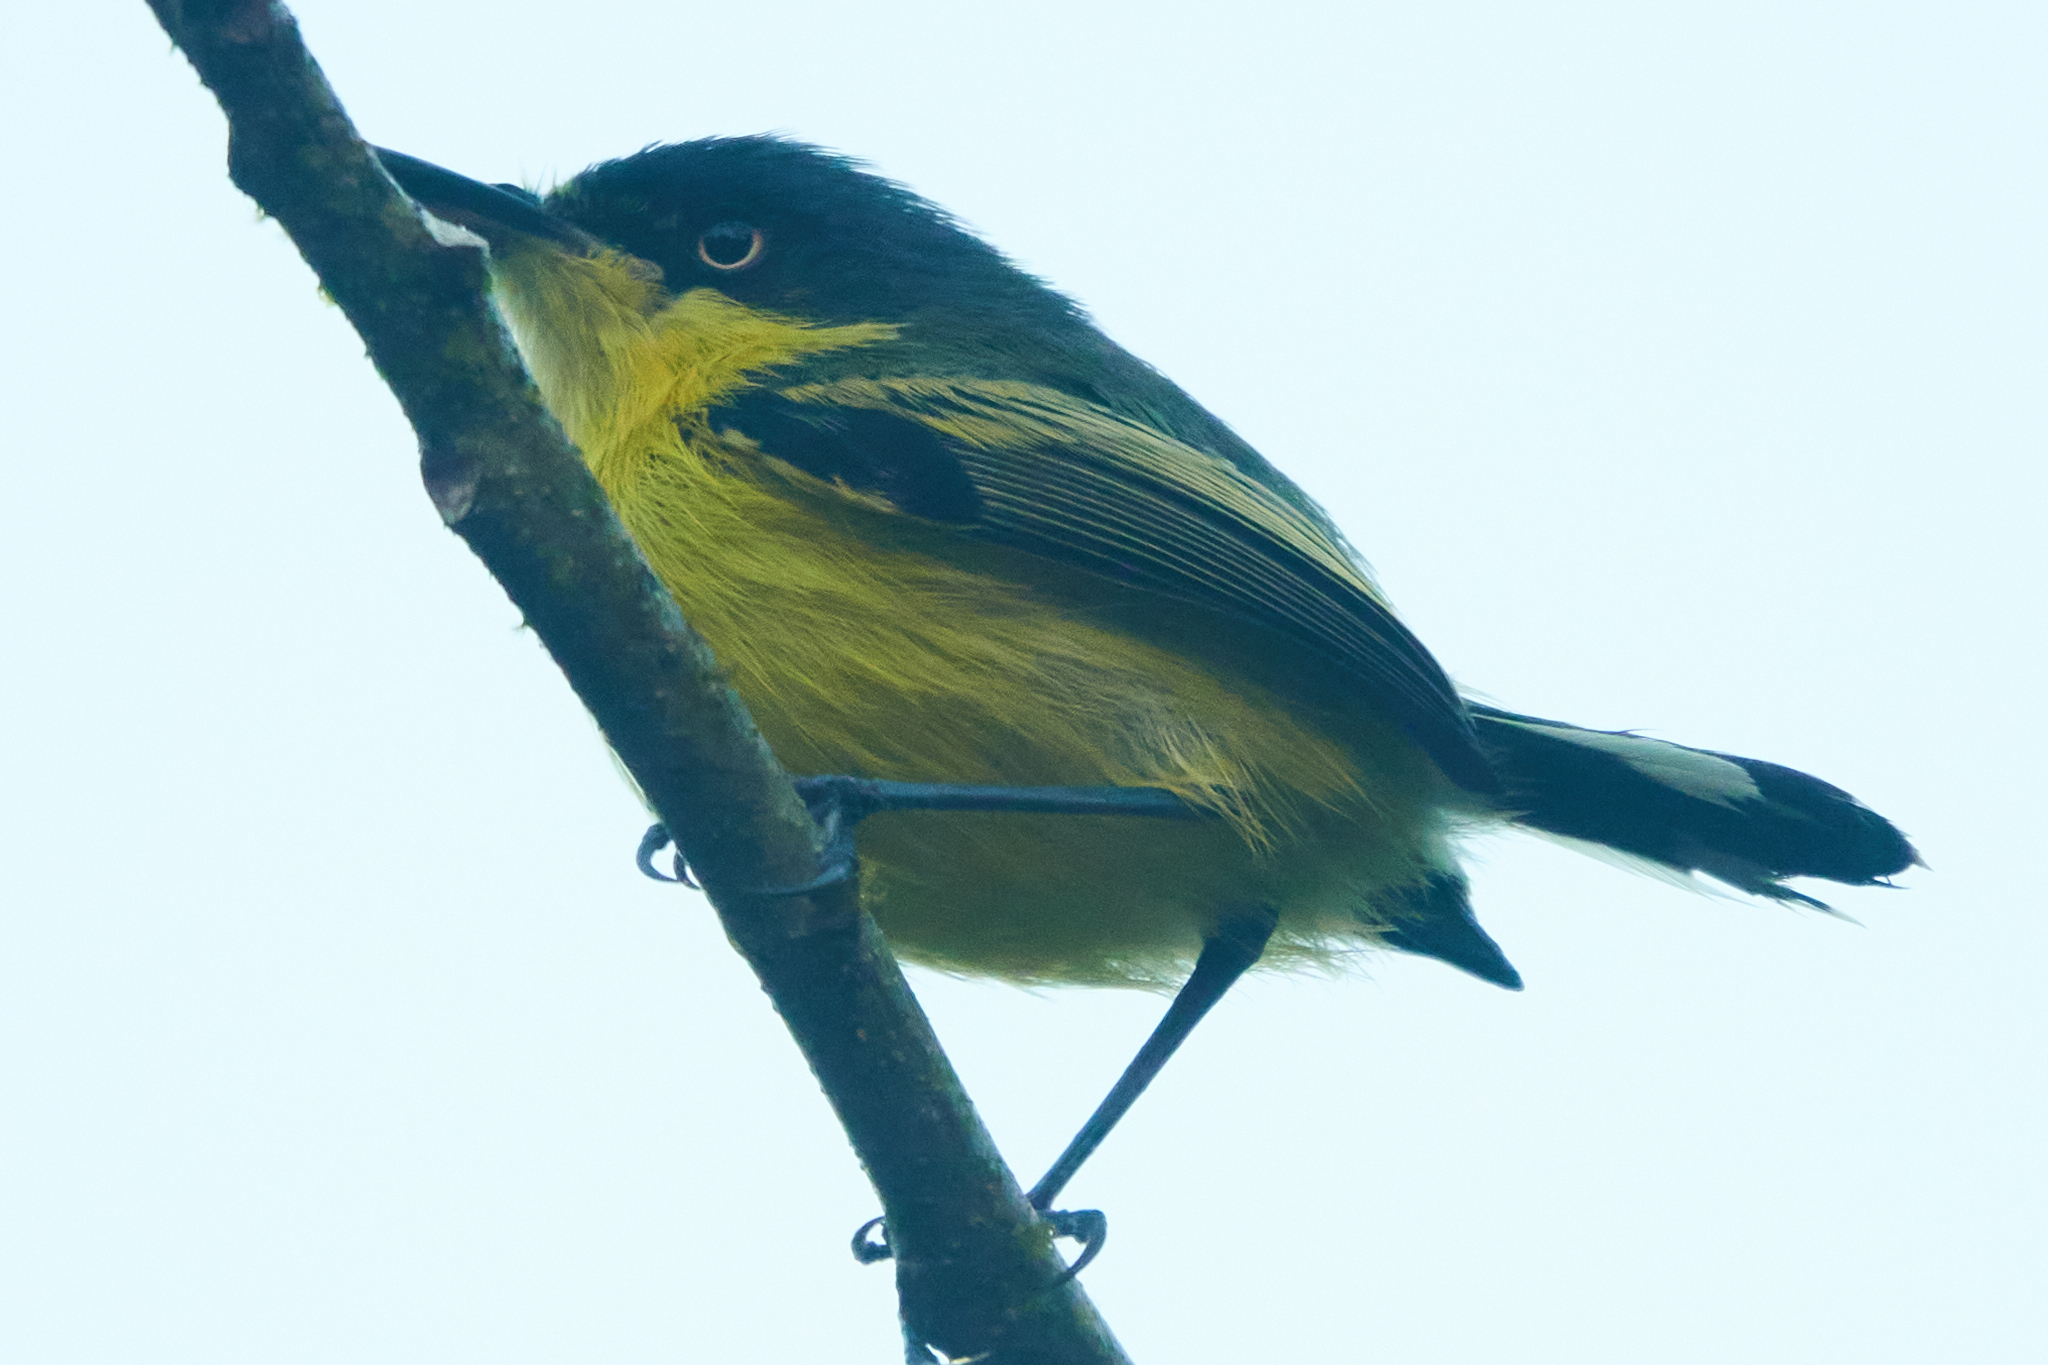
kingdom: Animalia
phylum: Chordata
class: Aves
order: Passeriformes
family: Tyrannidae
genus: Todirostrum
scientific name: Todirostrum cinereum
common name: Common tody-flycatcher
